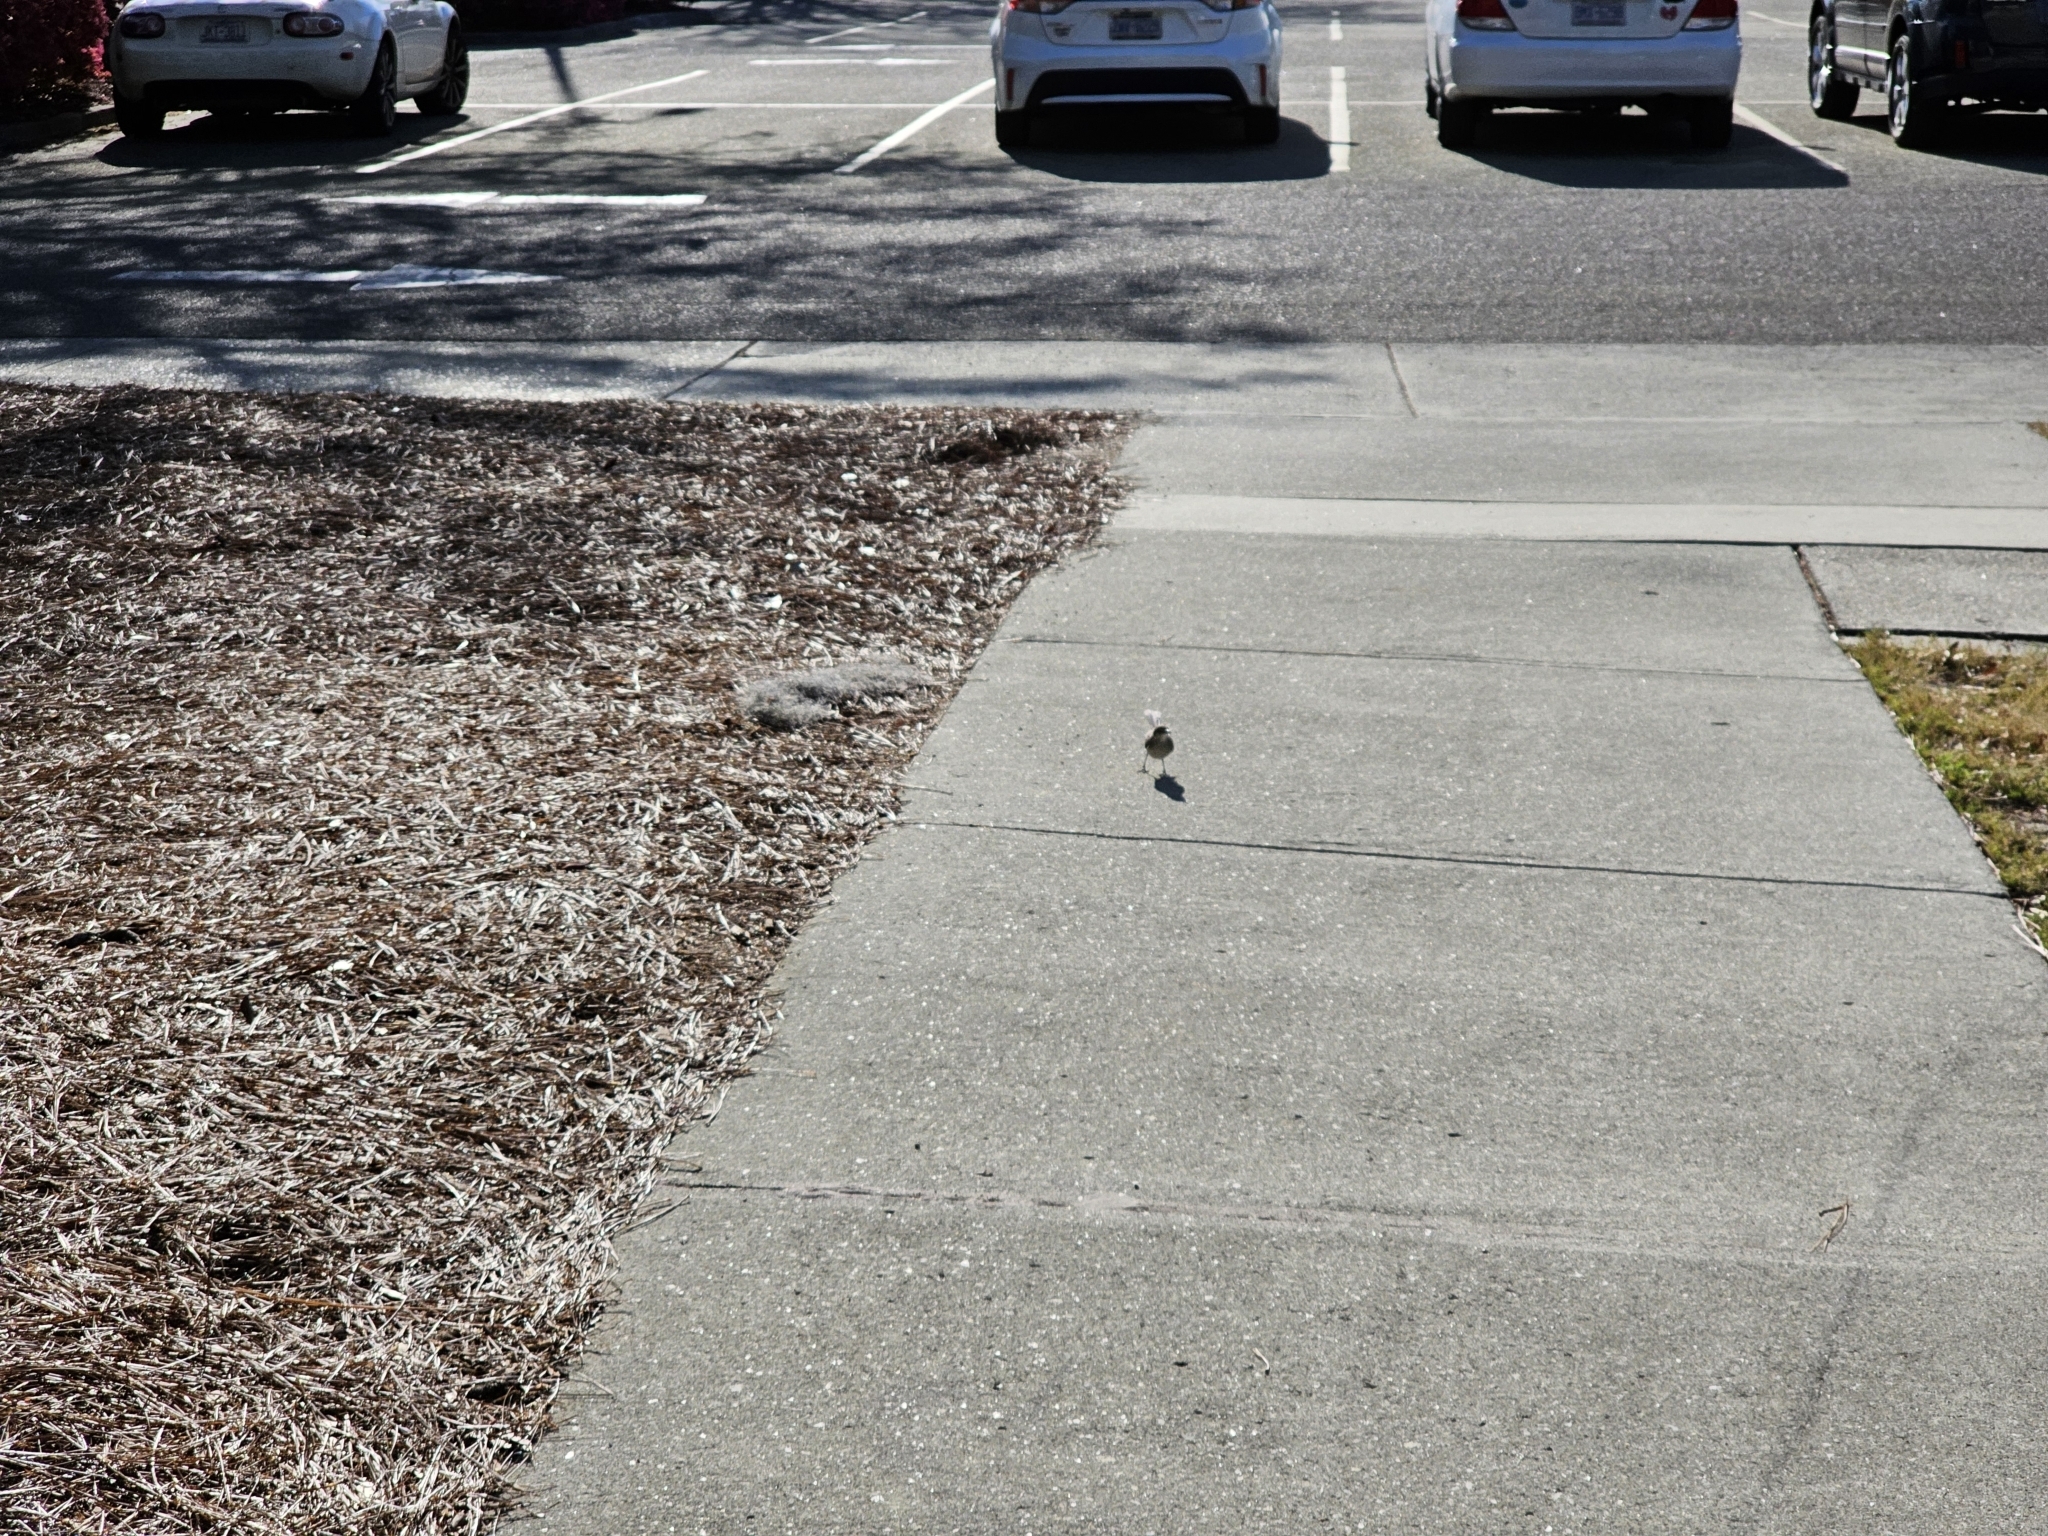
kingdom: Animalia
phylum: Chordata
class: Aves
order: Passeriformes
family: Mimidae
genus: Mimus
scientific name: Mimus polyglottos
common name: Northern mockingbird
